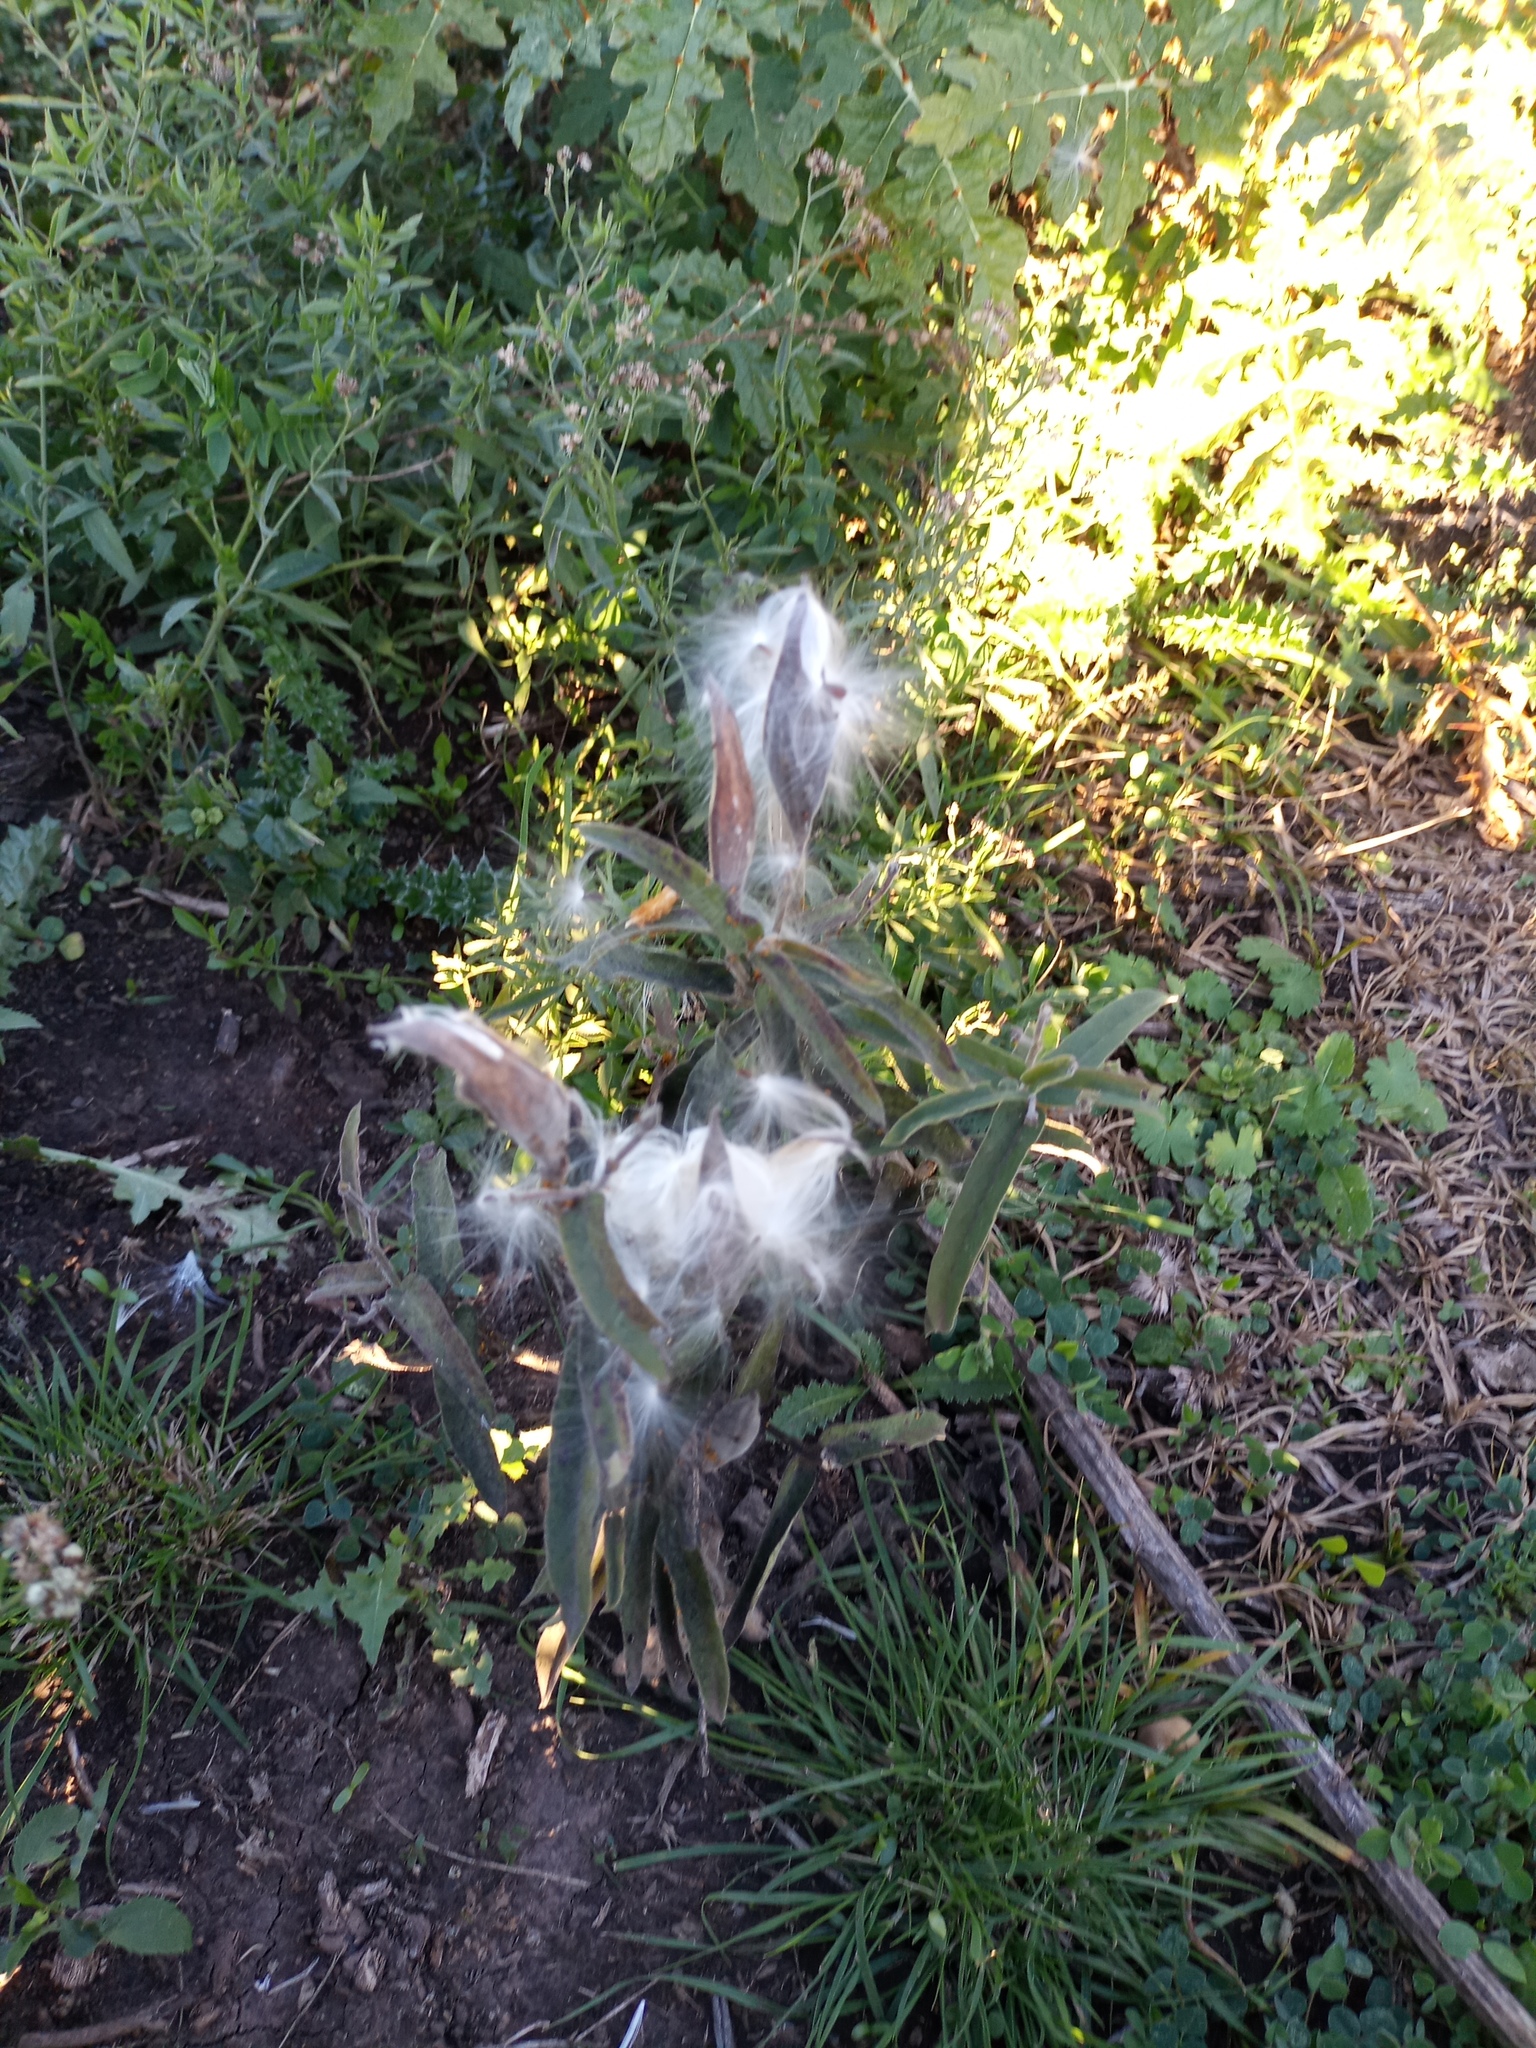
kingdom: Plantae
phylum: Tracheophyta
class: Magnoliopsida
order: Gentianales
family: Apocynaceae
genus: Oxypetalum
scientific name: Oxypetalum solanoides
